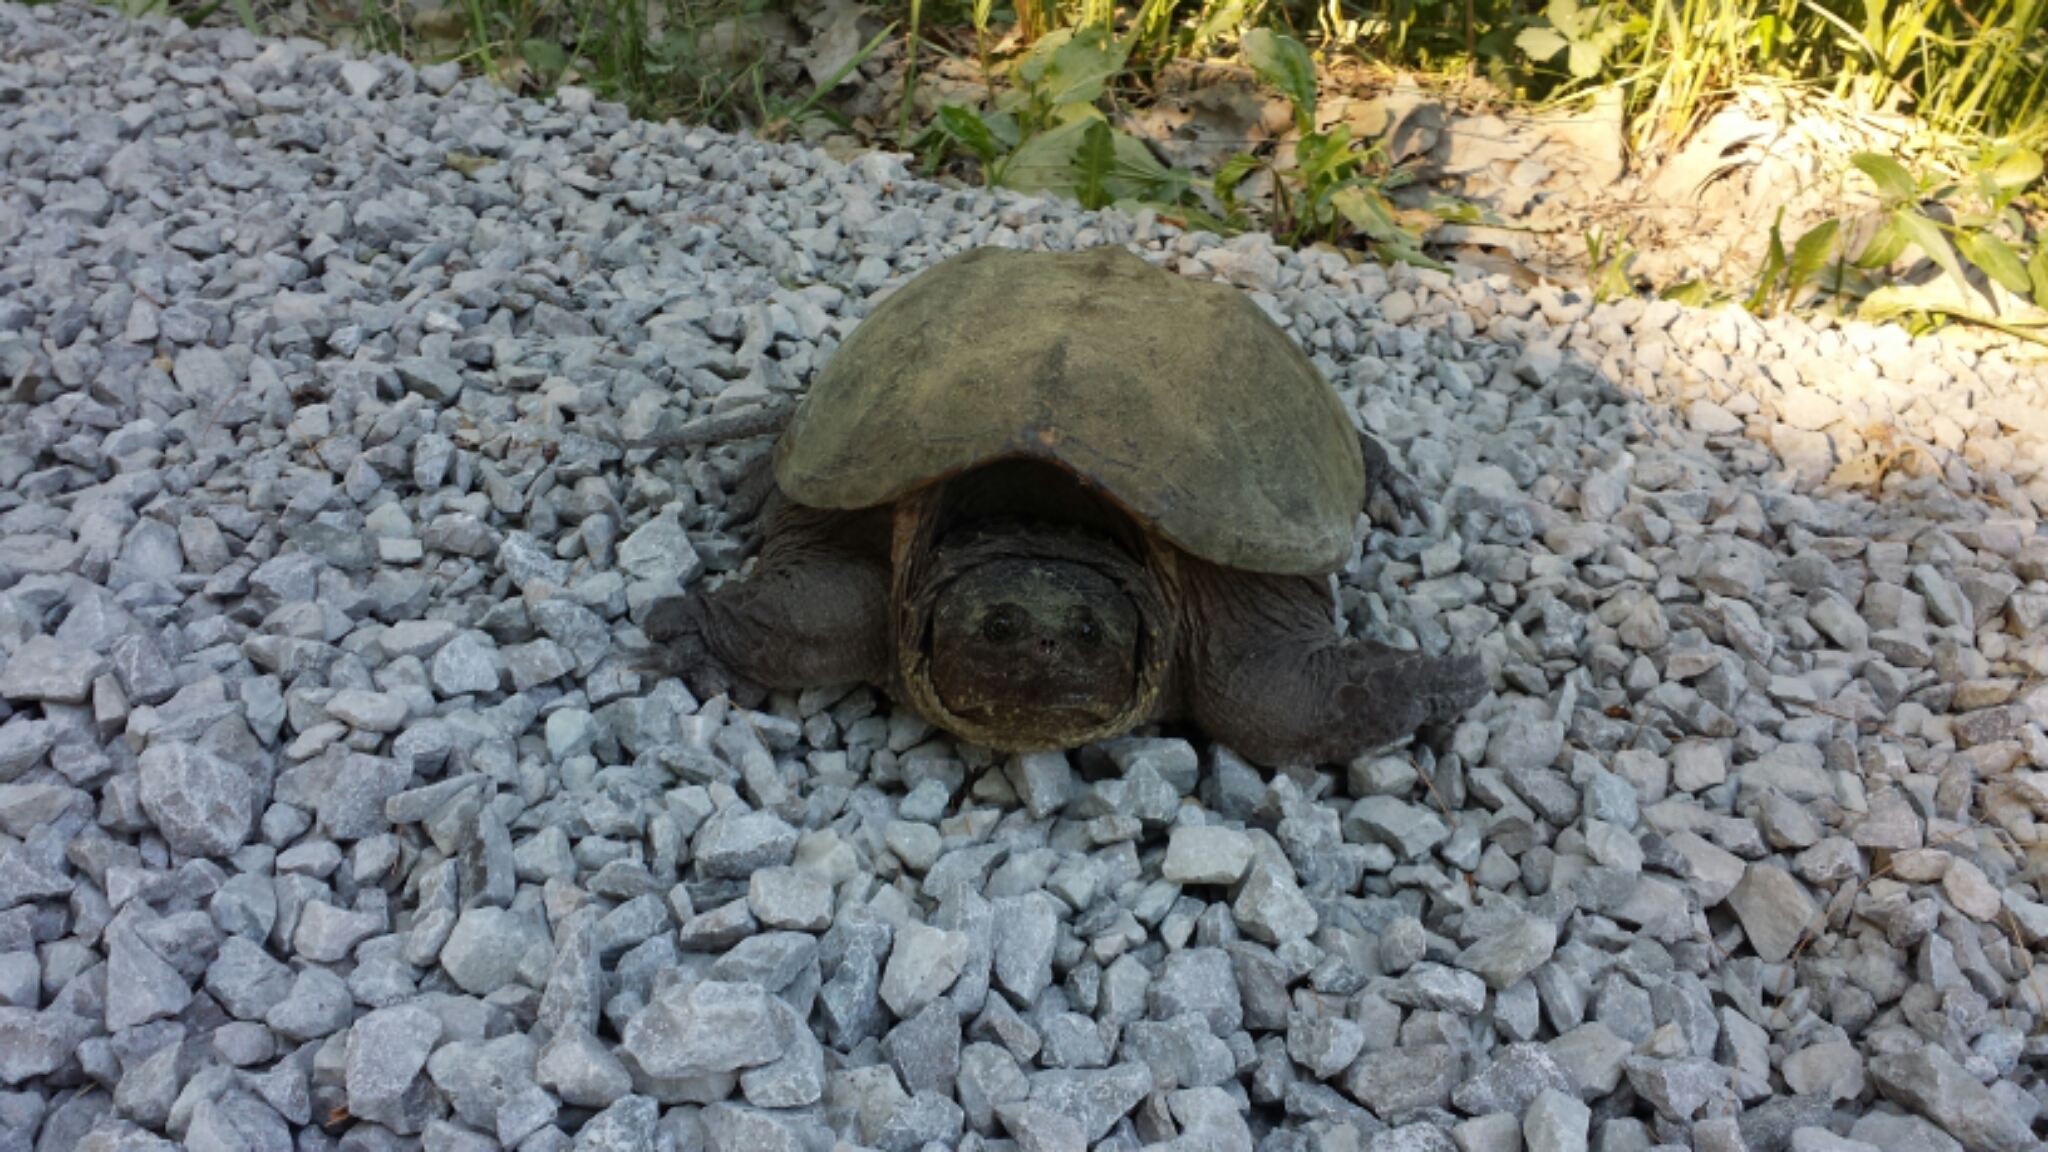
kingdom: Animalia
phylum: Chordata
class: Testudines
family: Chelydridae
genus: Chelydra
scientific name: Chelydra serpentina
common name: Common snapping turtle
